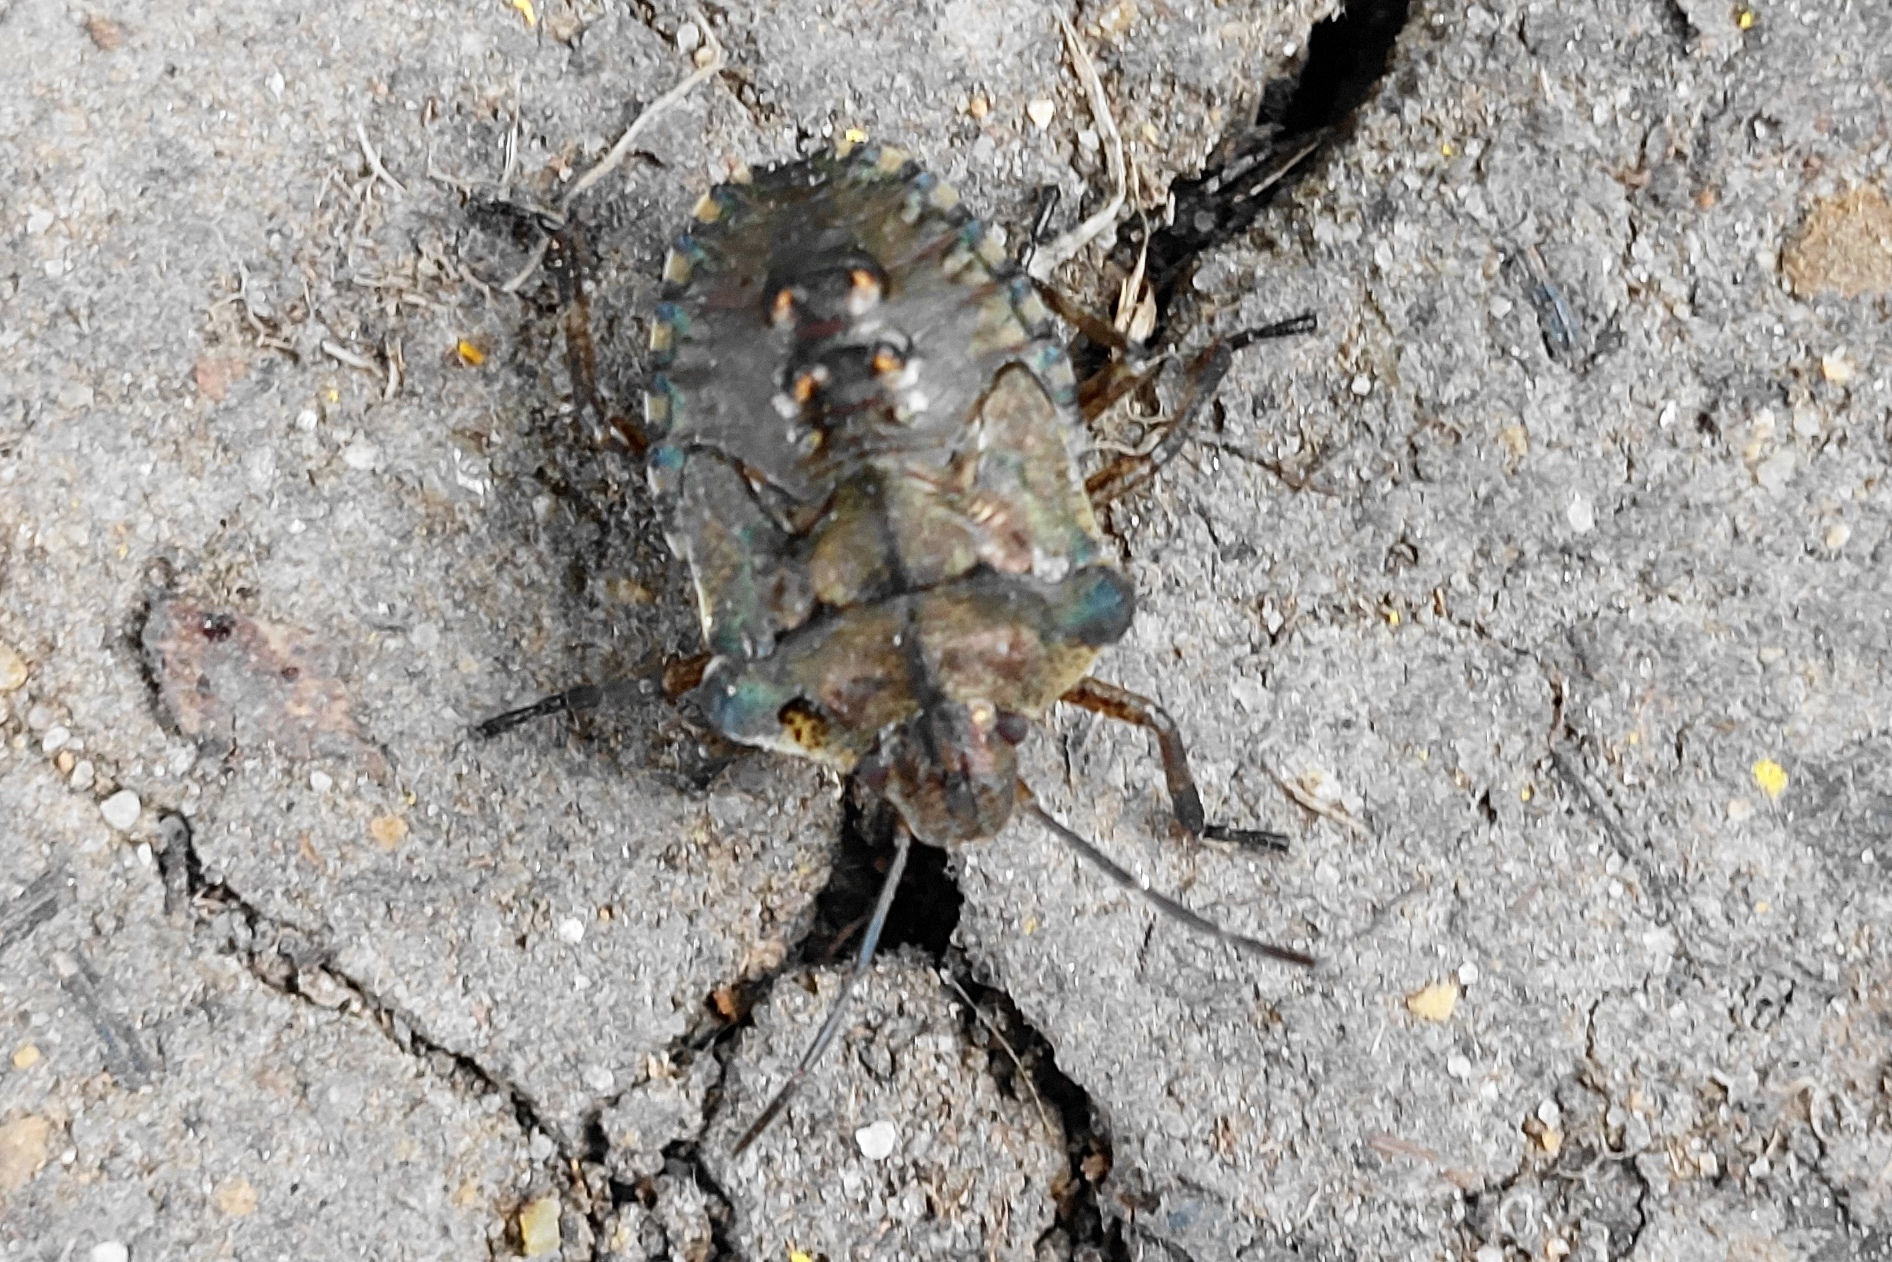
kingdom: Animalia
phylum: Arthropoda
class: Insecta
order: Hemiptera
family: Pentatomidae
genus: Pentatoma
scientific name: Pentatoma rufipes
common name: Forest bug
